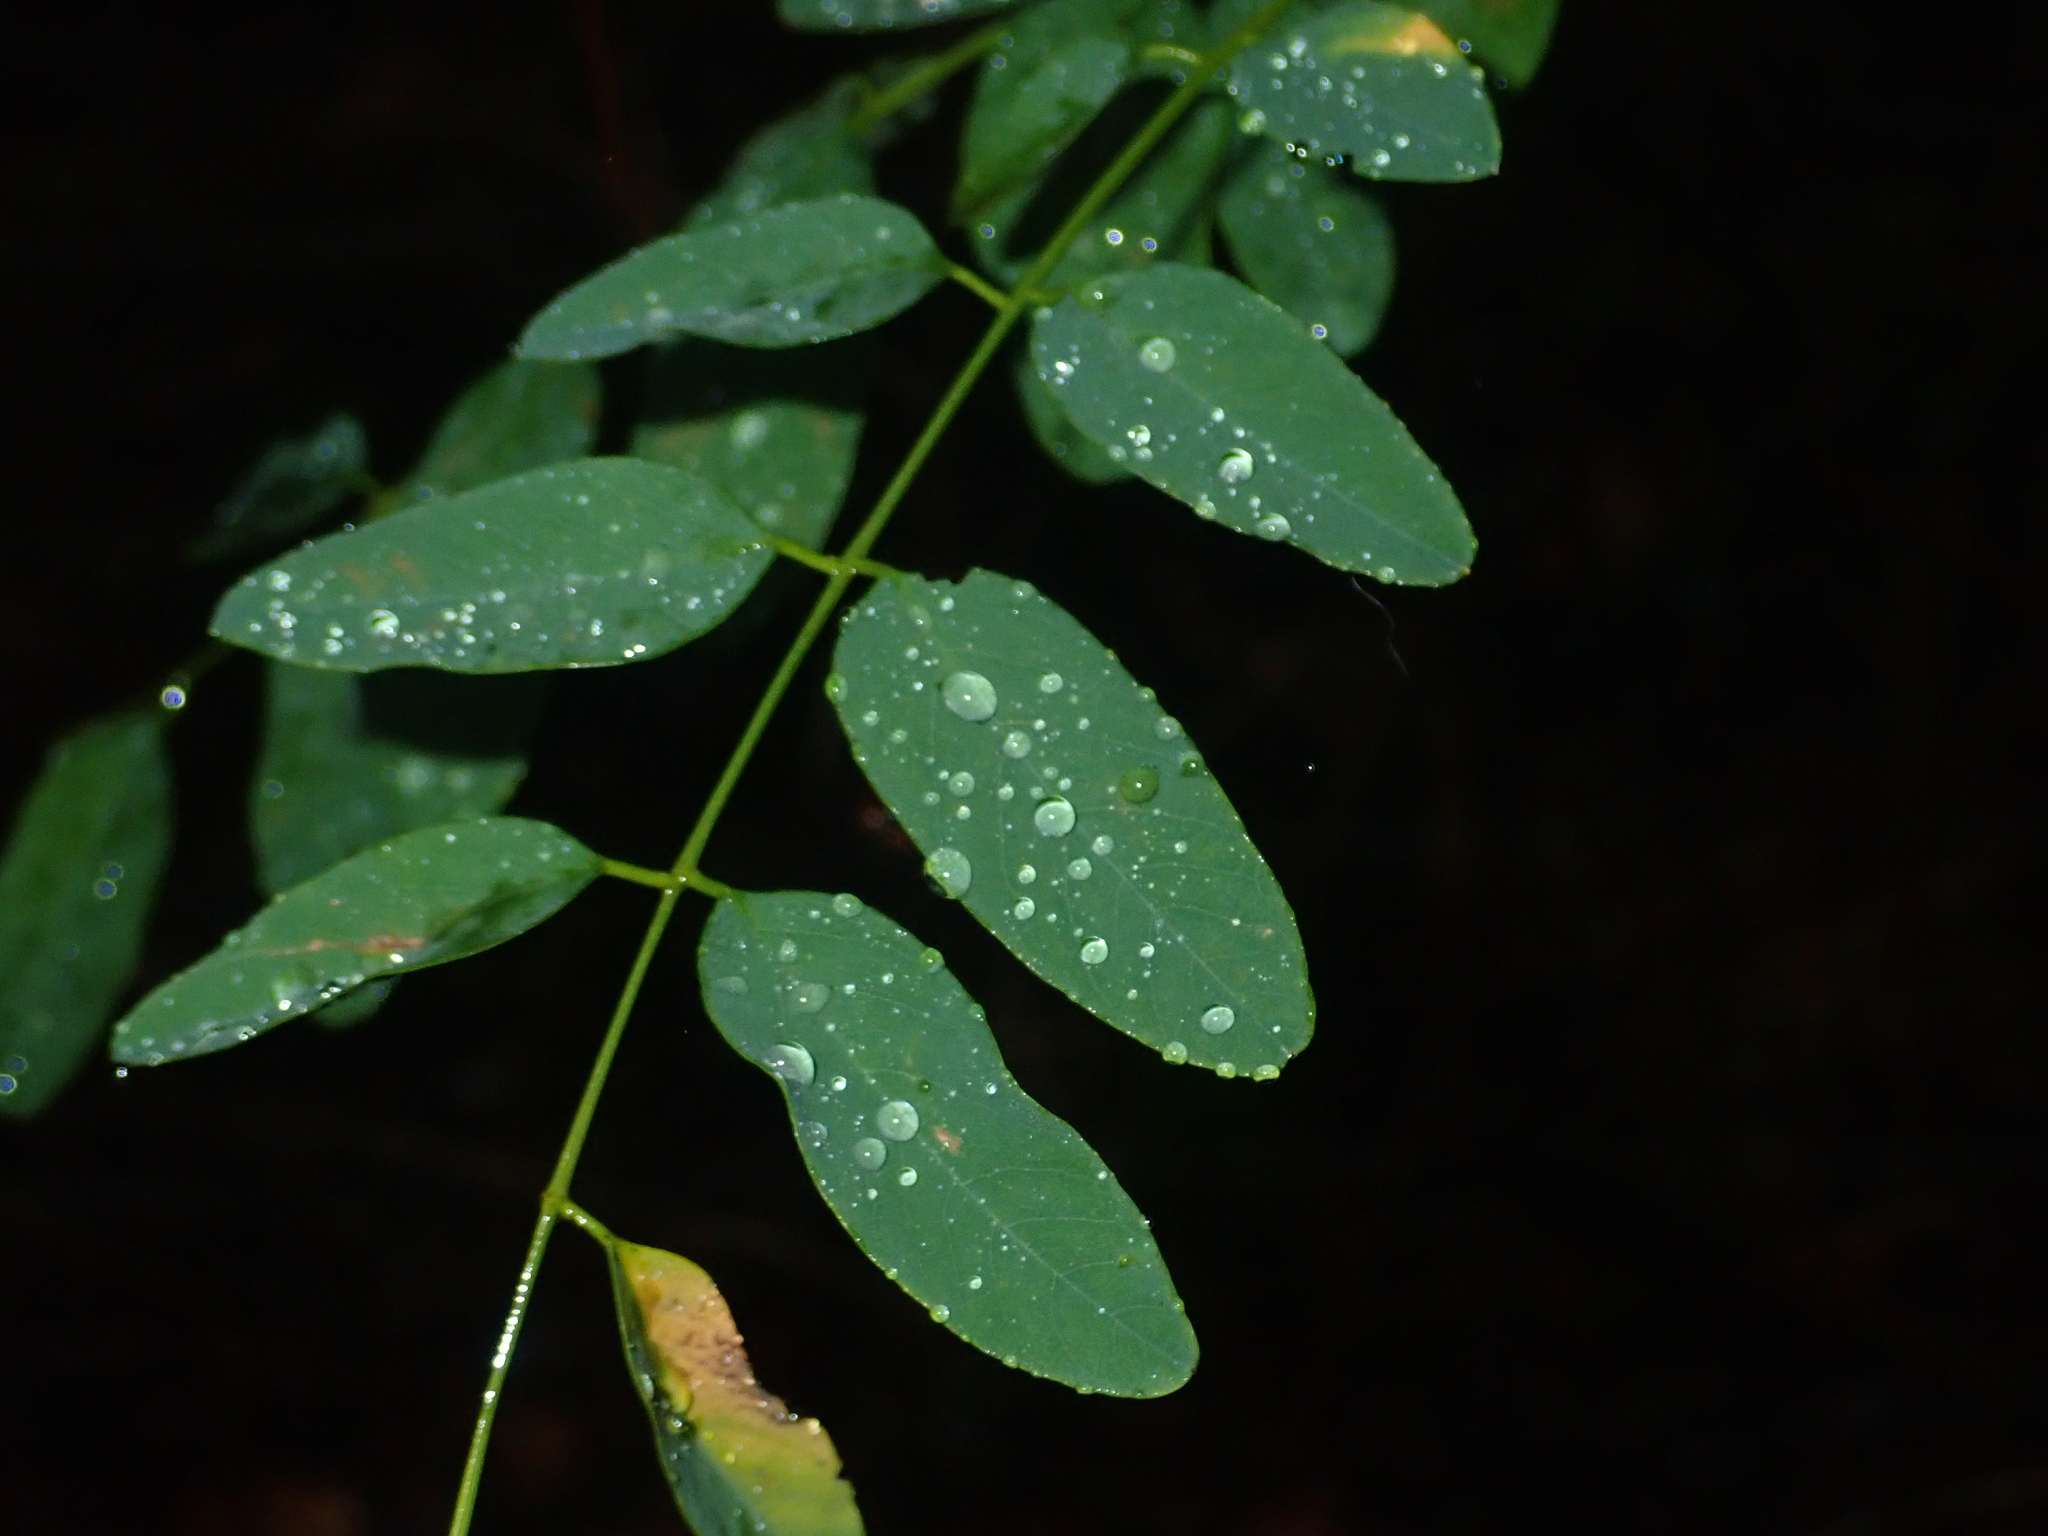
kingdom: Plantae
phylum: Tracheophyta
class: Magnoliopsida
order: Fabales
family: Fabaceae
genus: Robinia
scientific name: Robinia pseudoacacia
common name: Black locust
